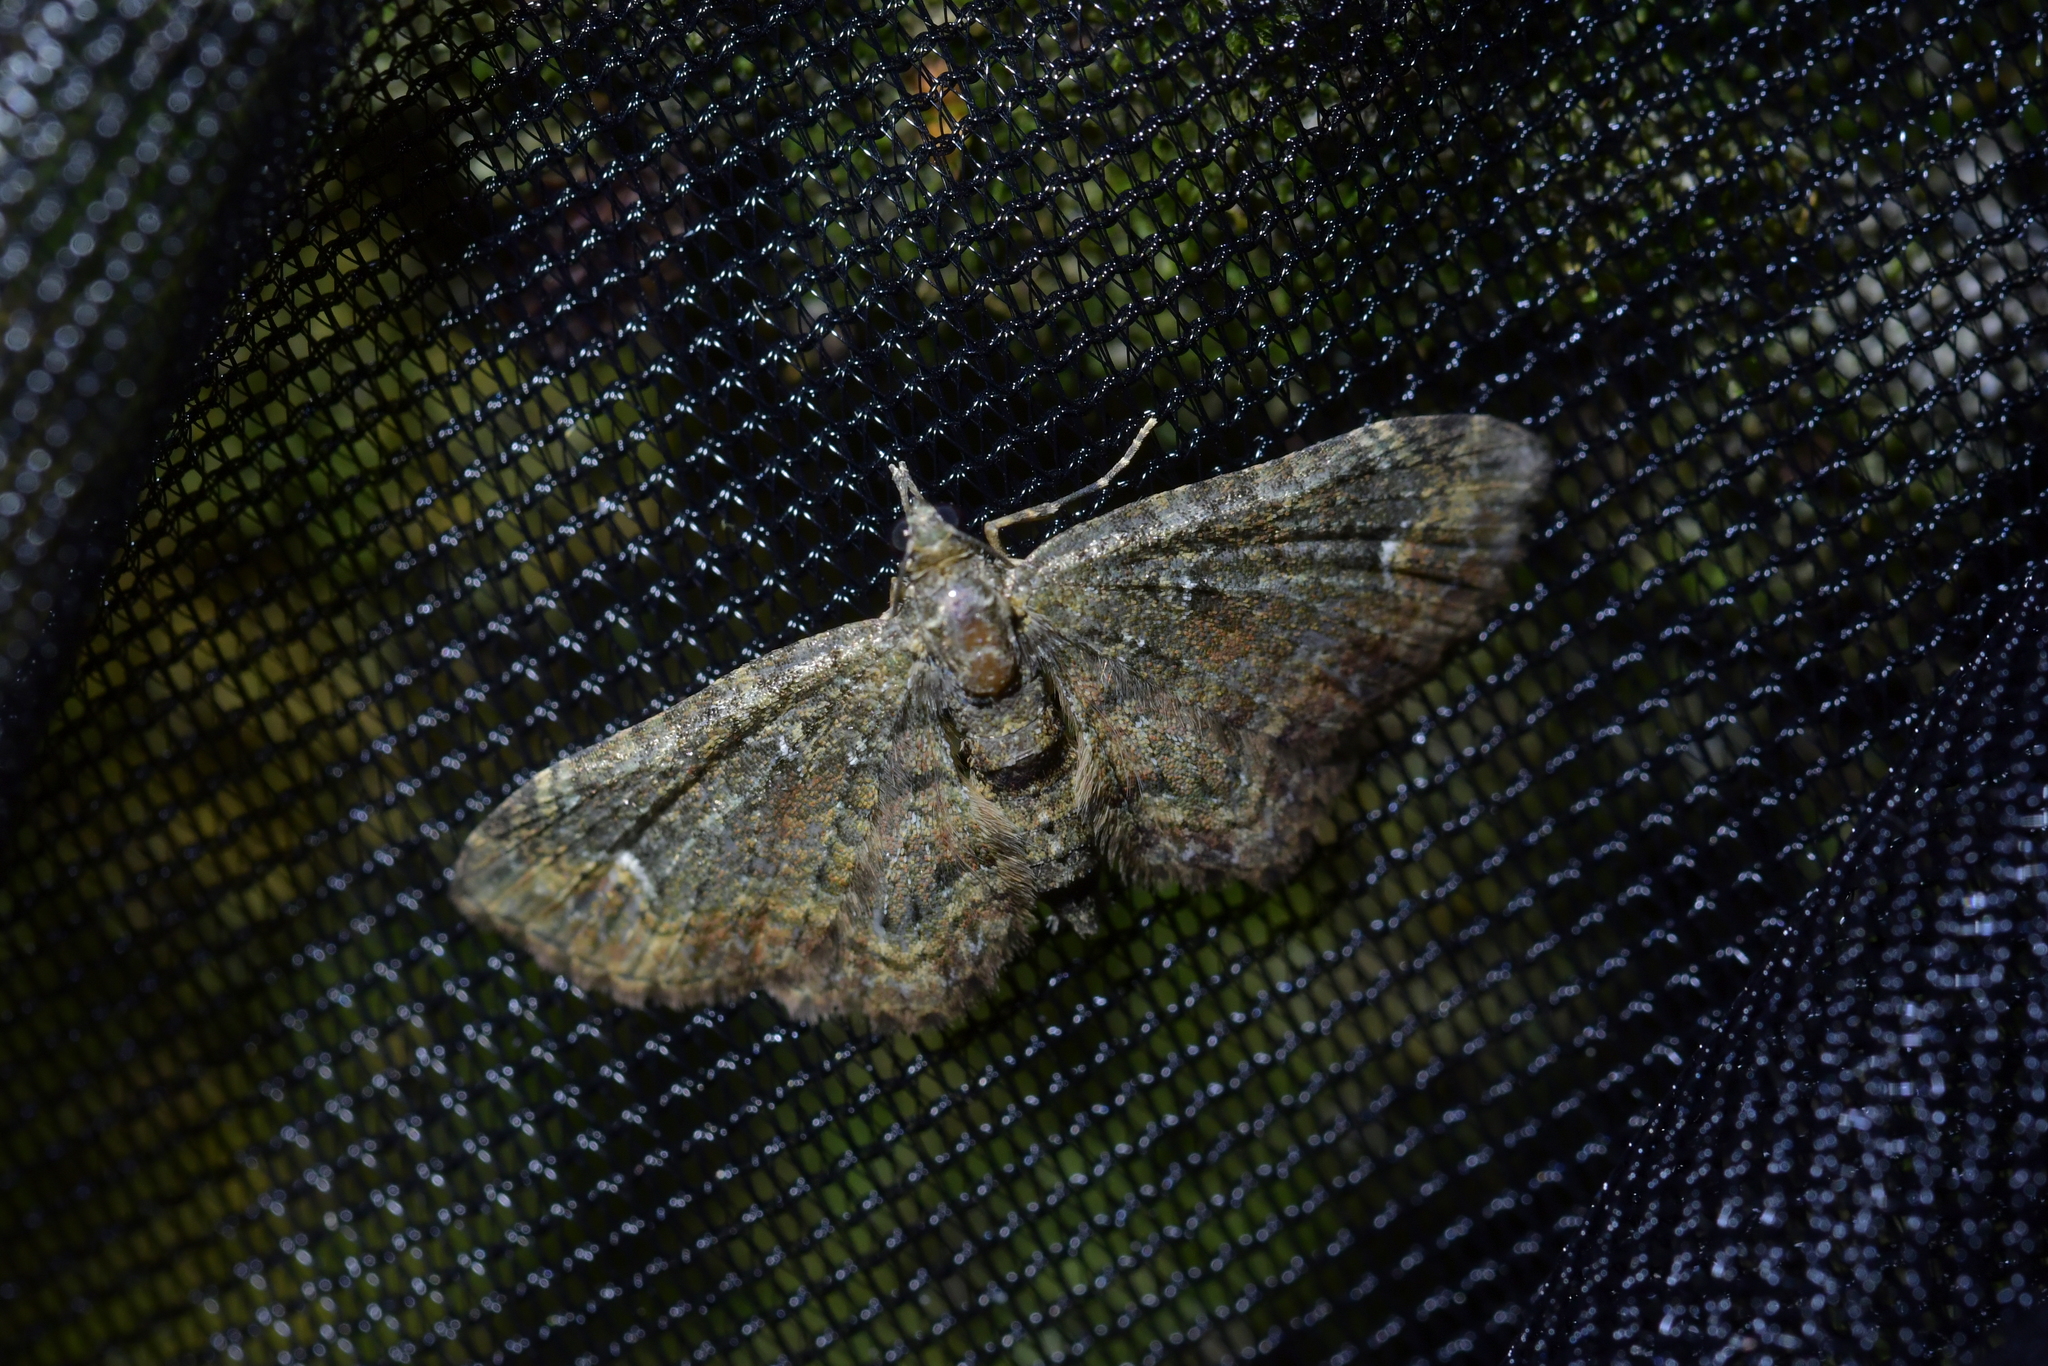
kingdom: Animalia
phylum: Arthropoda
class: Insecta
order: Lepidoptera
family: Geometridae
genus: Pasiphilodes
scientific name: Pasiphilodes testulata
